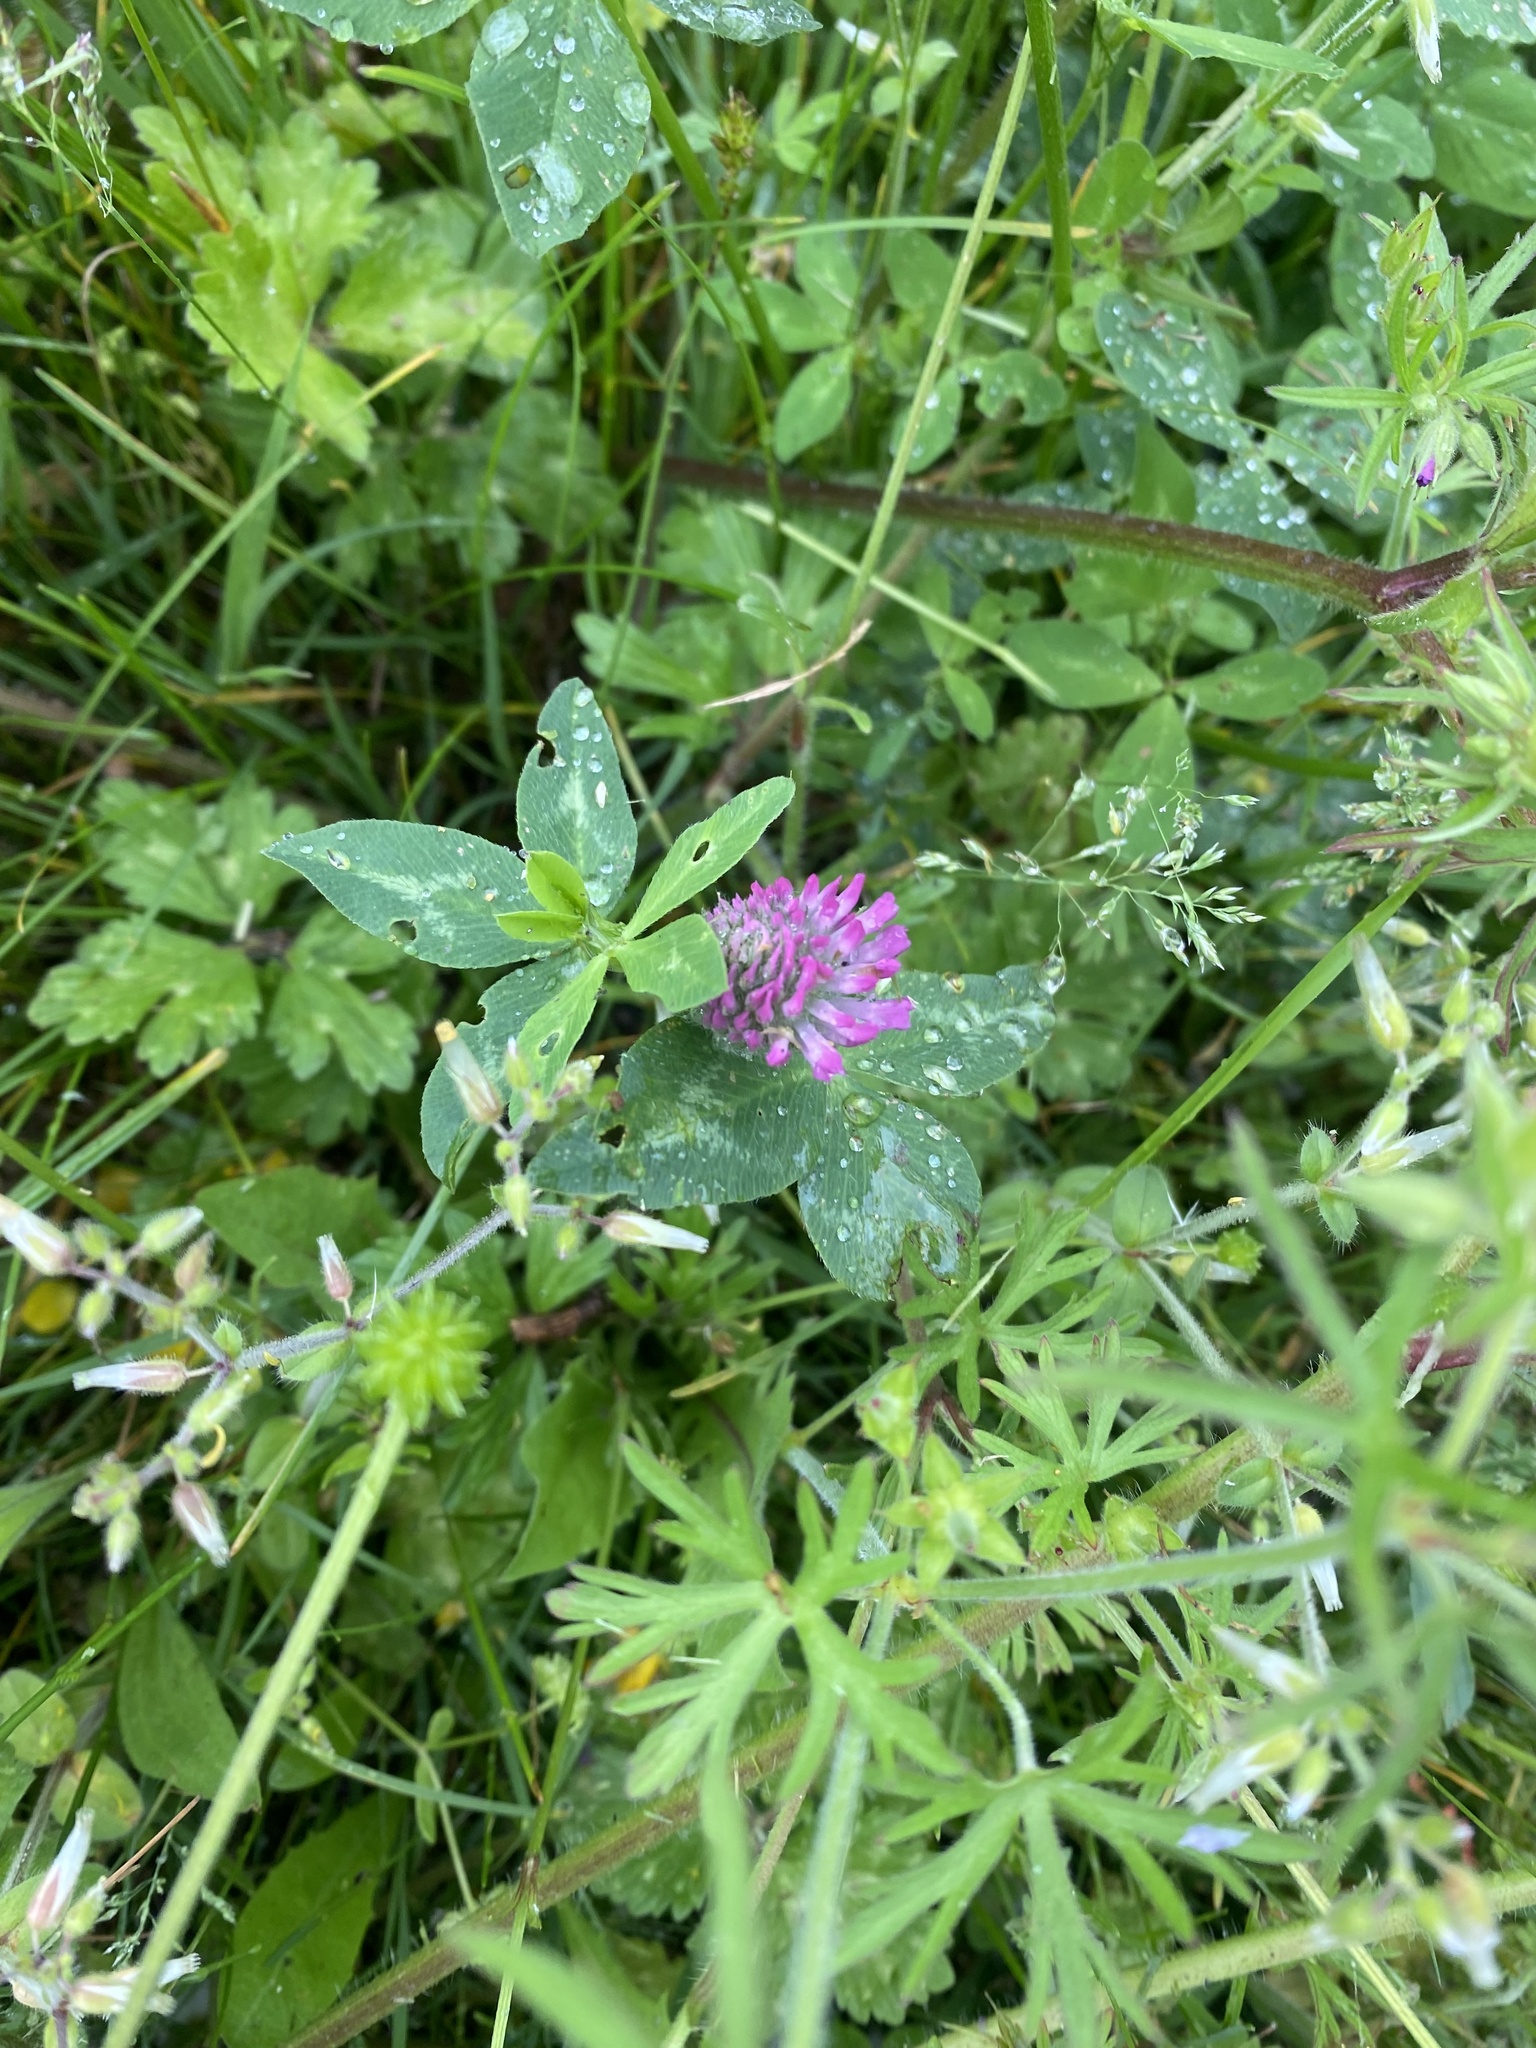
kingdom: Plantae
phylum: Tracheophyta
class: Magnoliopsida
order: Fabales
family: Fabaceae
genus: Trifolium
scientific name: Trifolium pratense
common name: Red clover
